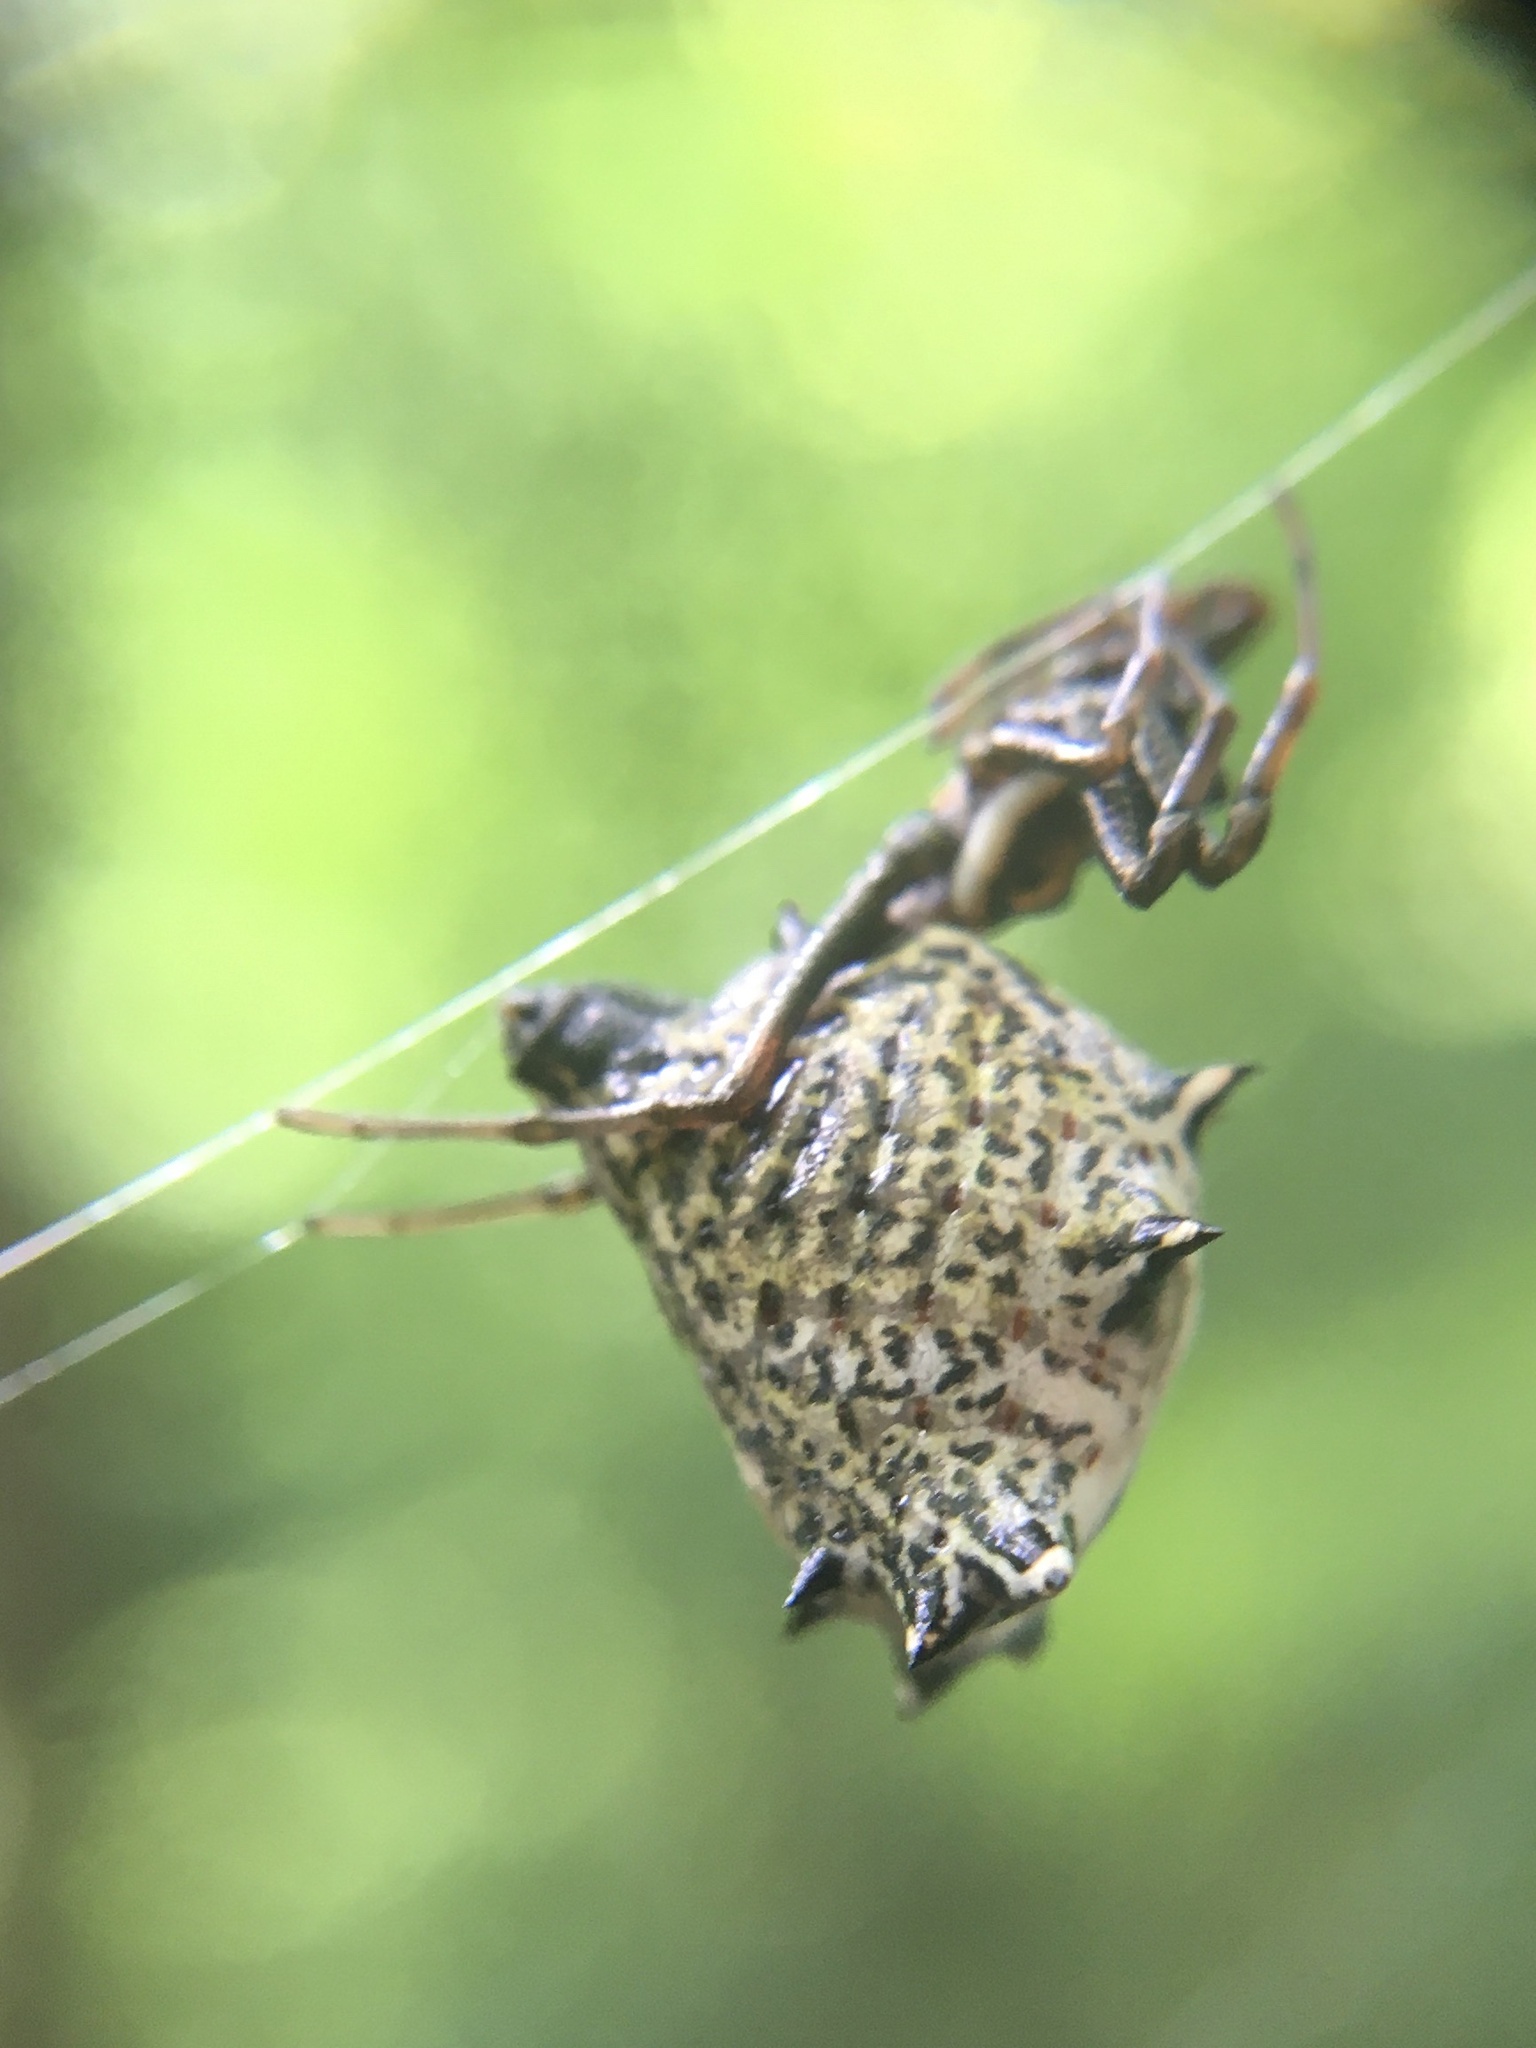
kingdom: Animalia
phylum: Arthropoda
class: Arachnida
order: Araneae
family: Araneidae
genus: Micrathena
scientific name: Micrathena gracilis
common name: Orb weavers
